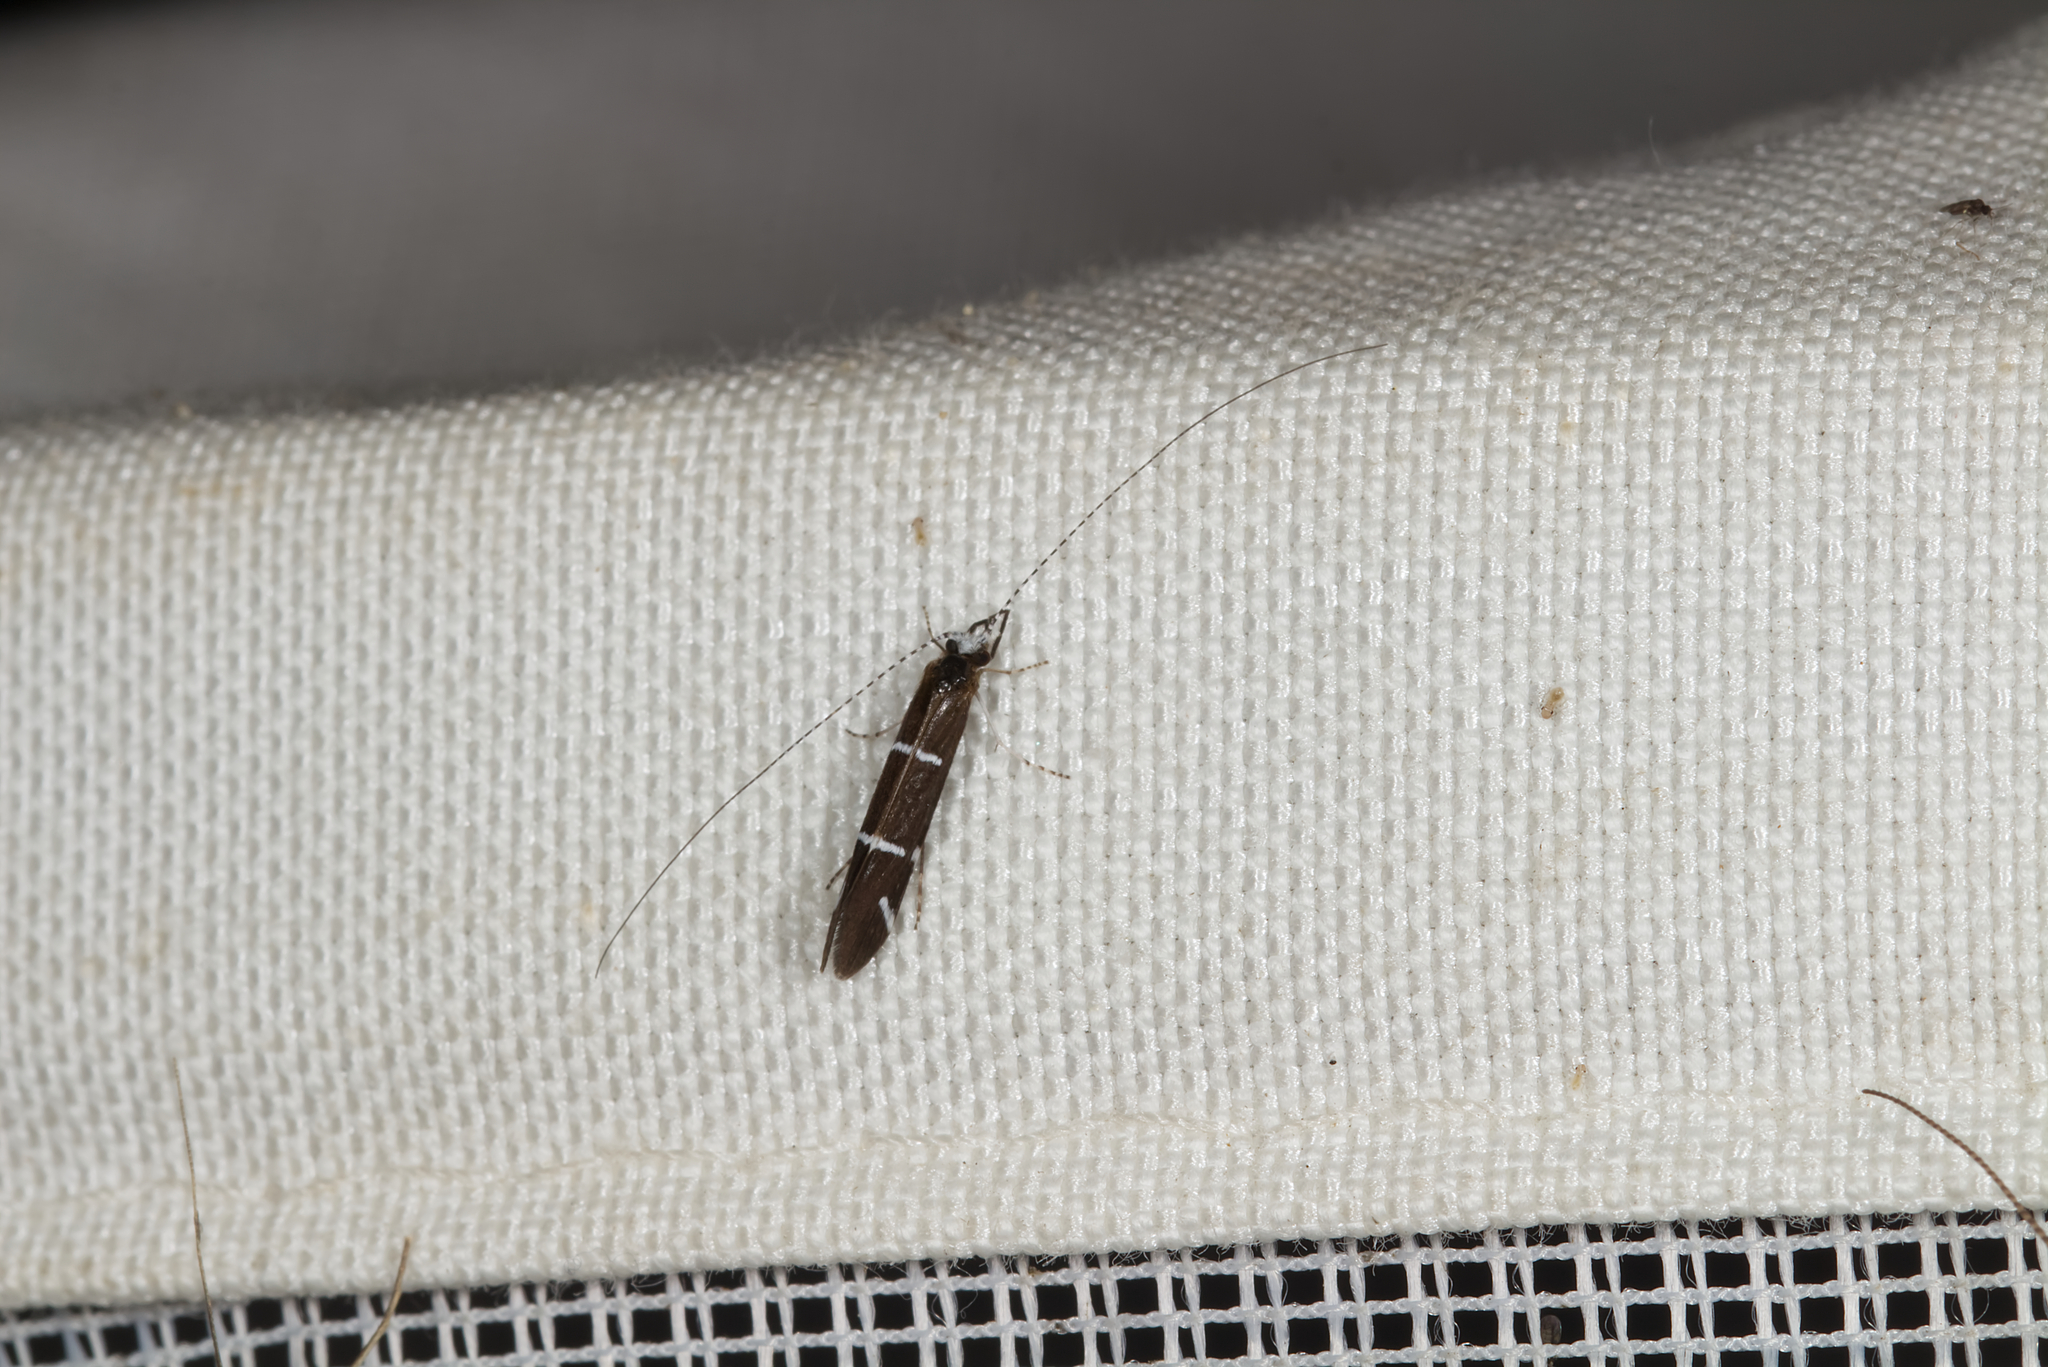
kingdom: Animalia
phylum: Arthropoda
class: Insecta
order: Trichoptera
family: Leptoceridae
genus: Athripsodes
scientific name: Athripsodes albifrons
